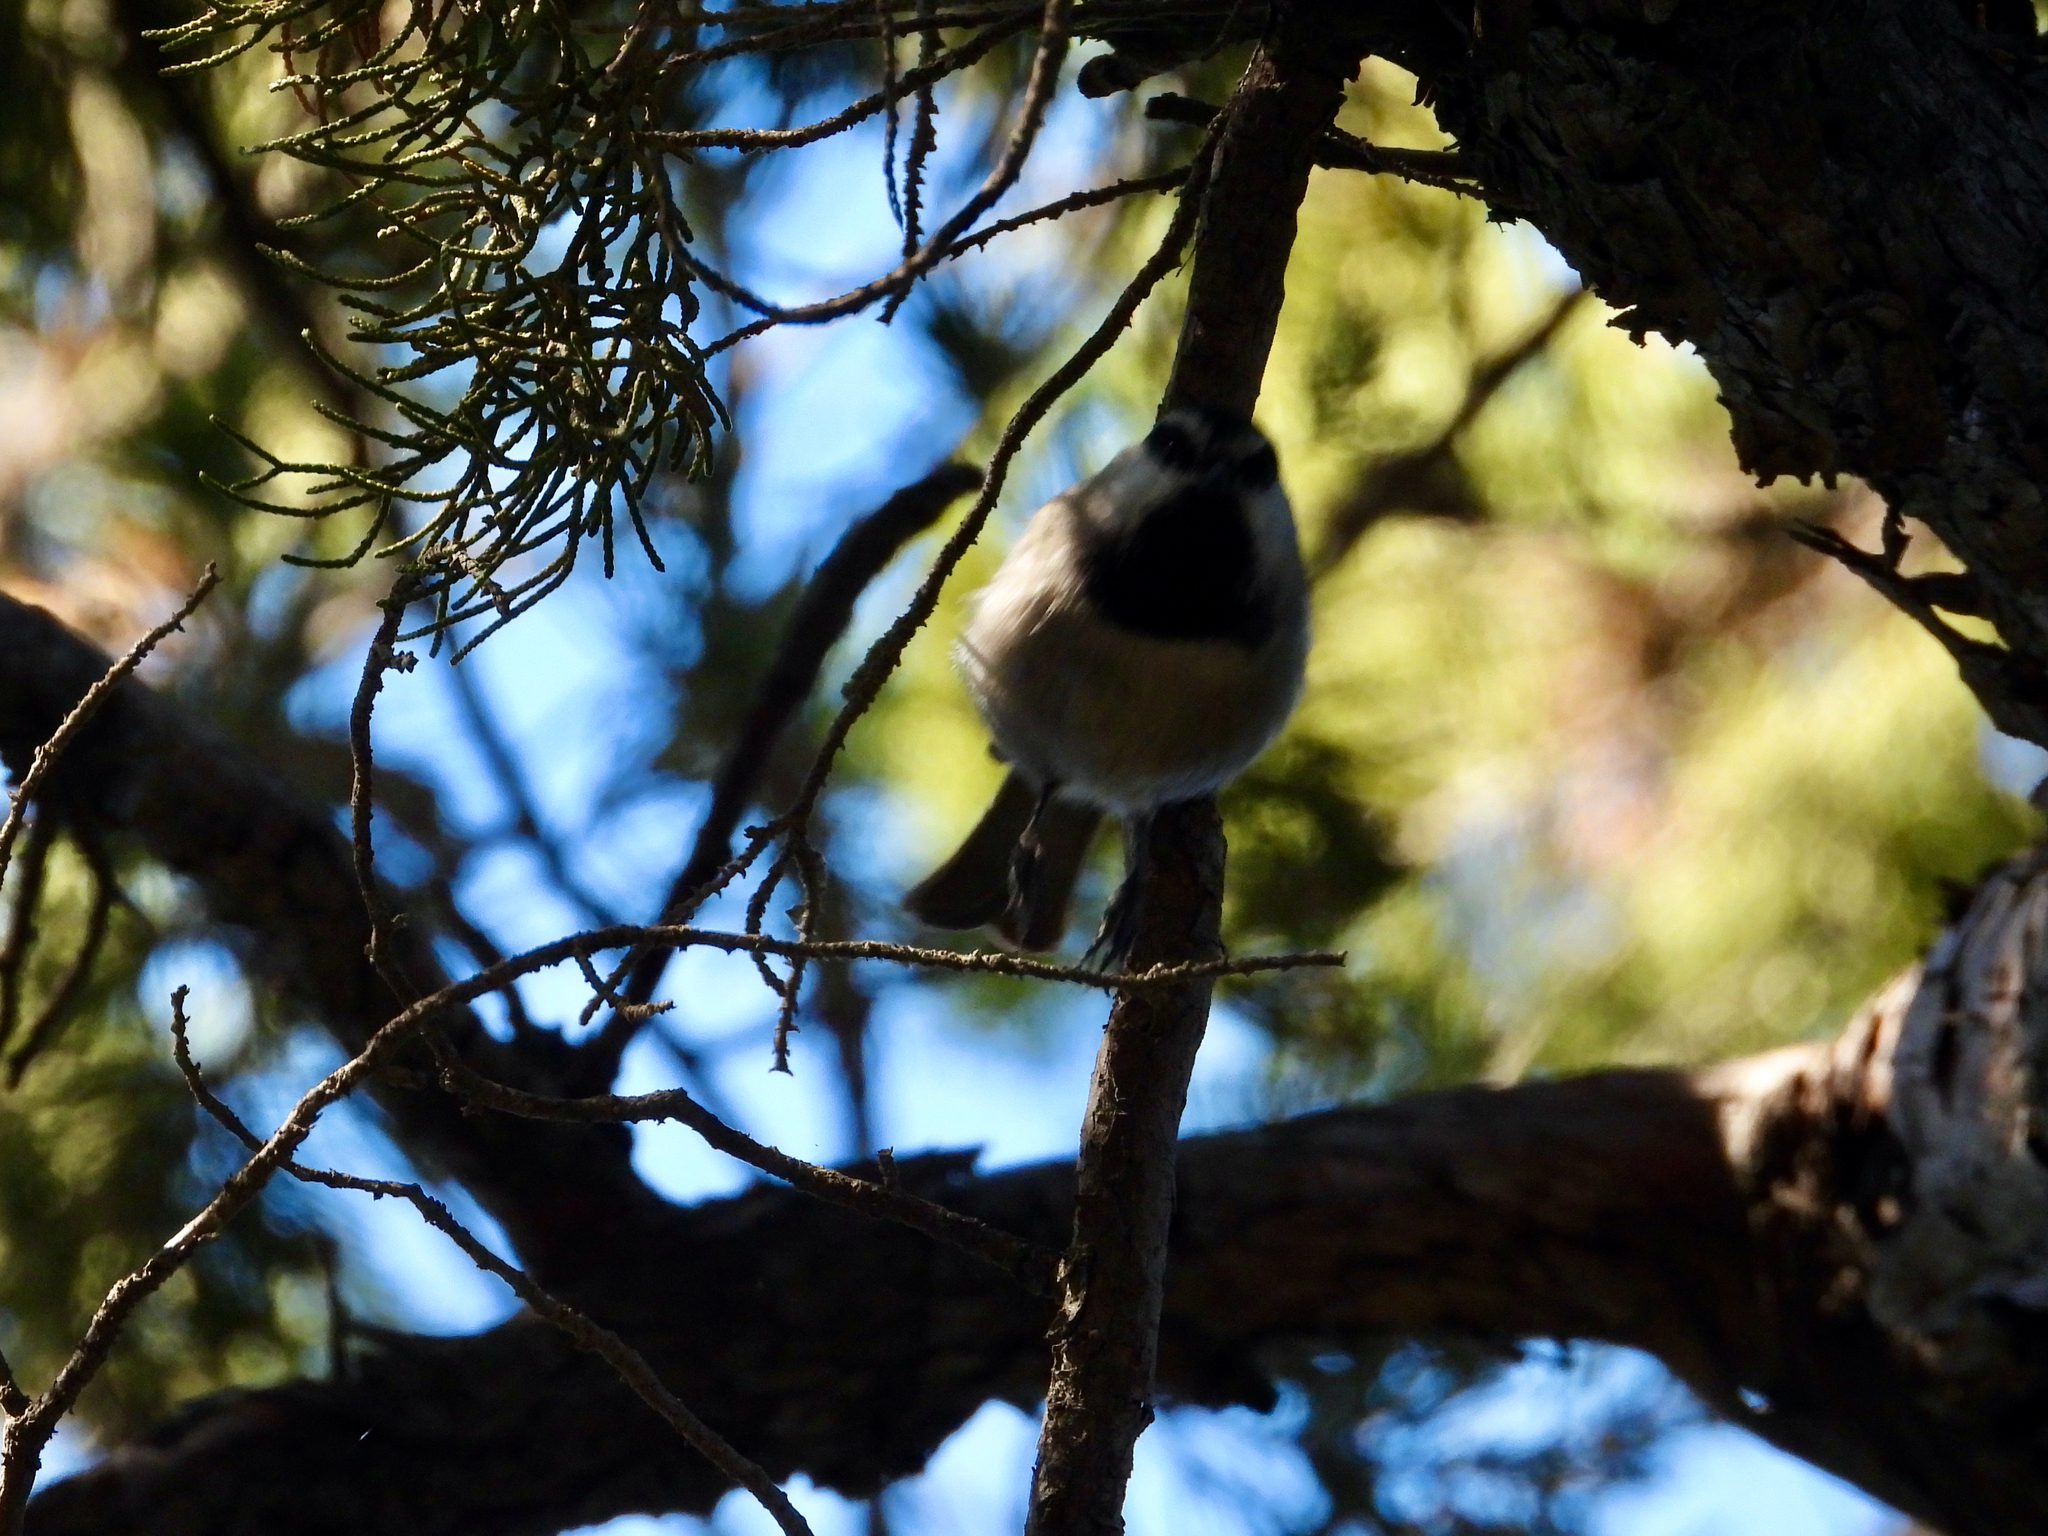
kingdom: Animalia
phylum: Chordata
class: Aves
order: Passeriformes
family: Paridae
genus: Poecile
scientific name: Poecile gambeli
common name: Mountain chickadee
